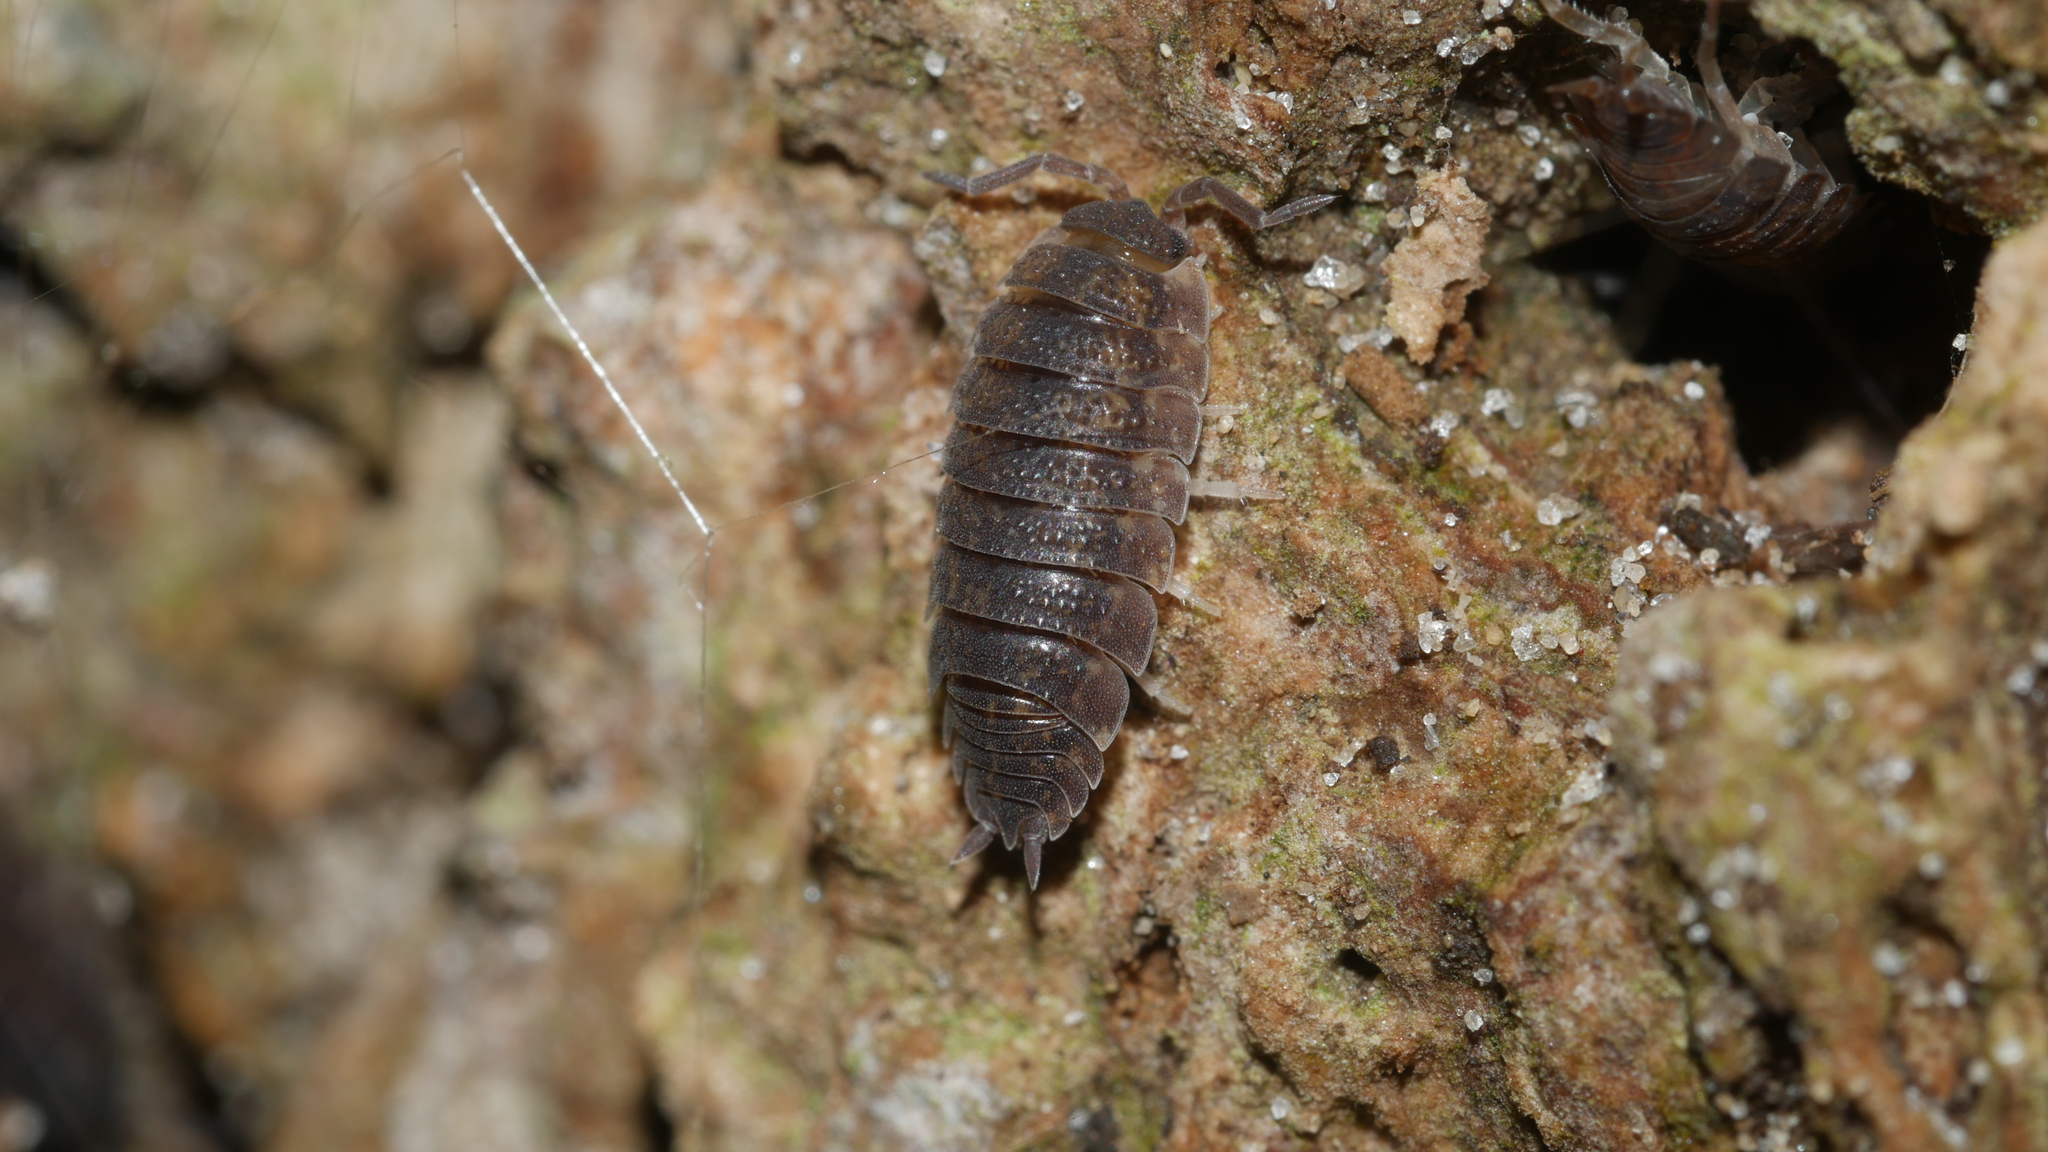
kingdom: Animalia
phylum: Arthropoda
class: Malacostraca
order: Isopoda
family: Porcellionidae
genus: Porcellio
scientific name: Porcellio scaber
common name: Common rough woodlouse
